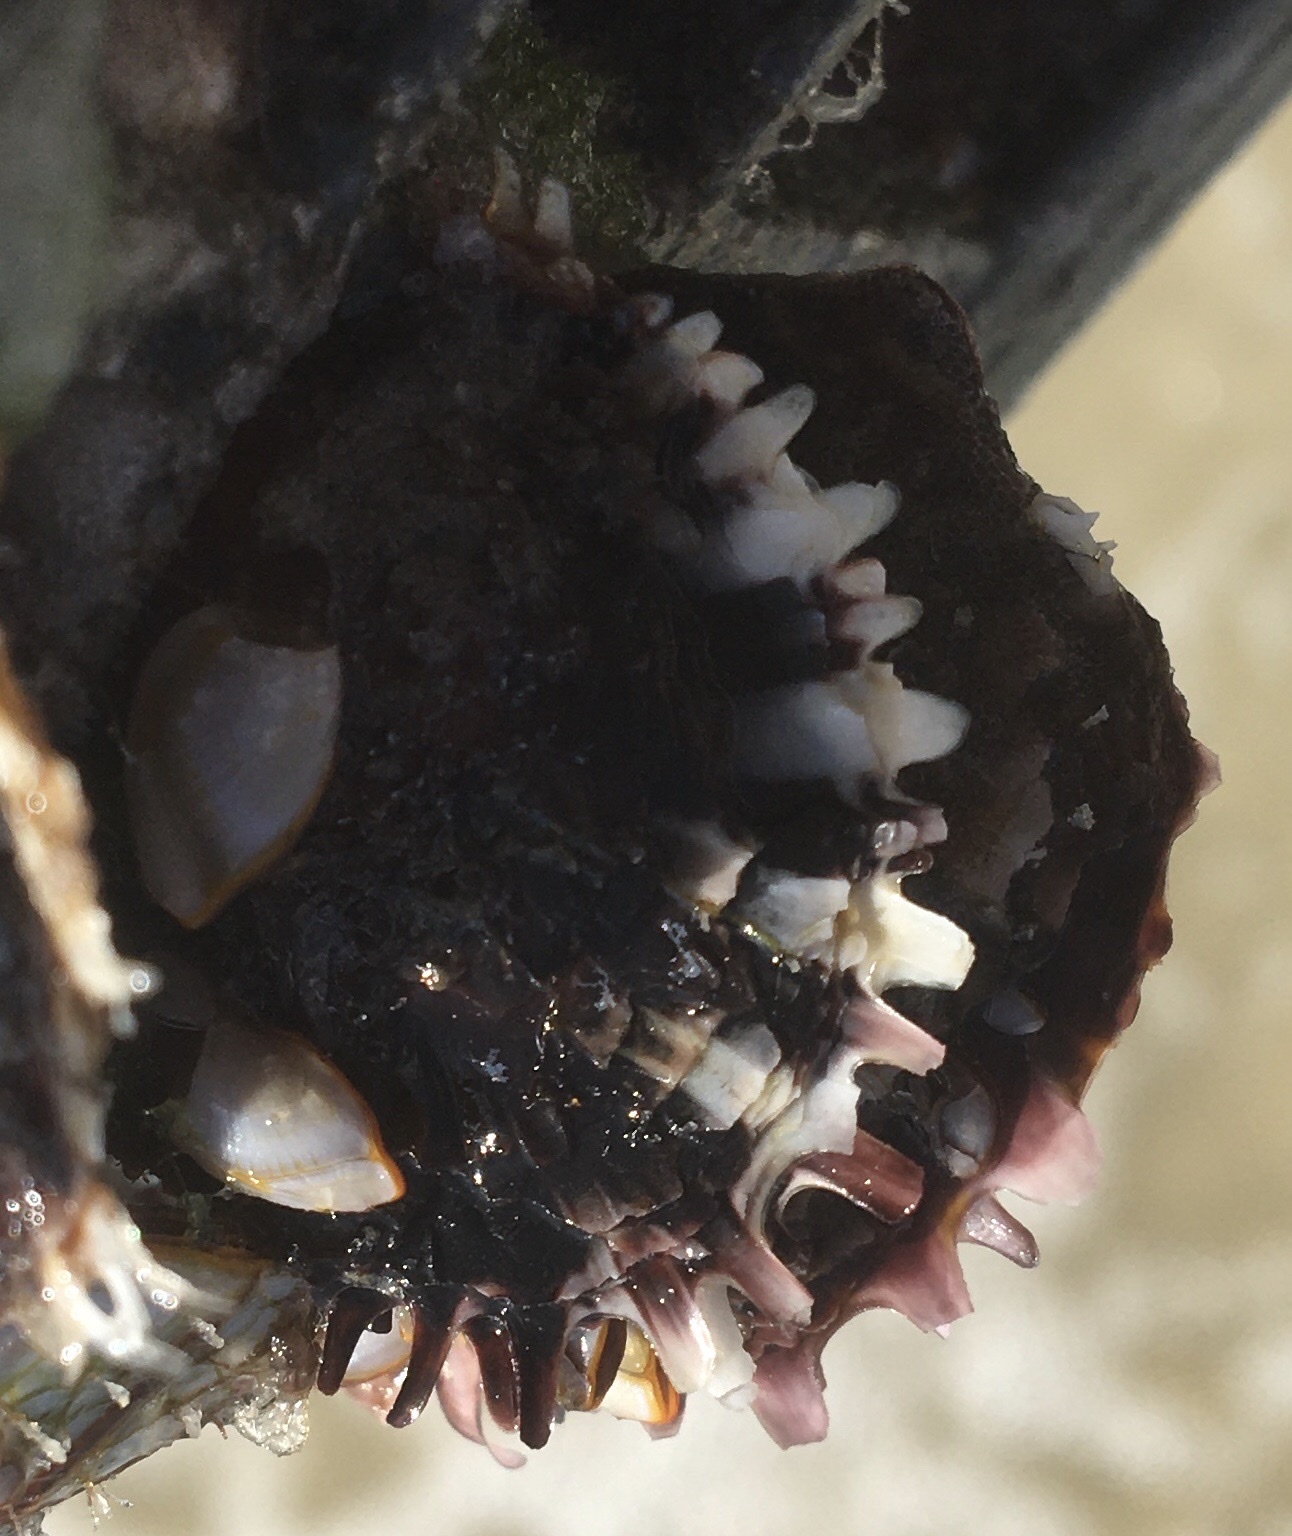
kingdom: Animalia
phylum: Mollusca
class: Bivalvia
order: Ostreida
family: Margaritidae
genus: Pinctada
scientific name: Pinctada imbricata
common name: Atlantic pearl-oyster
